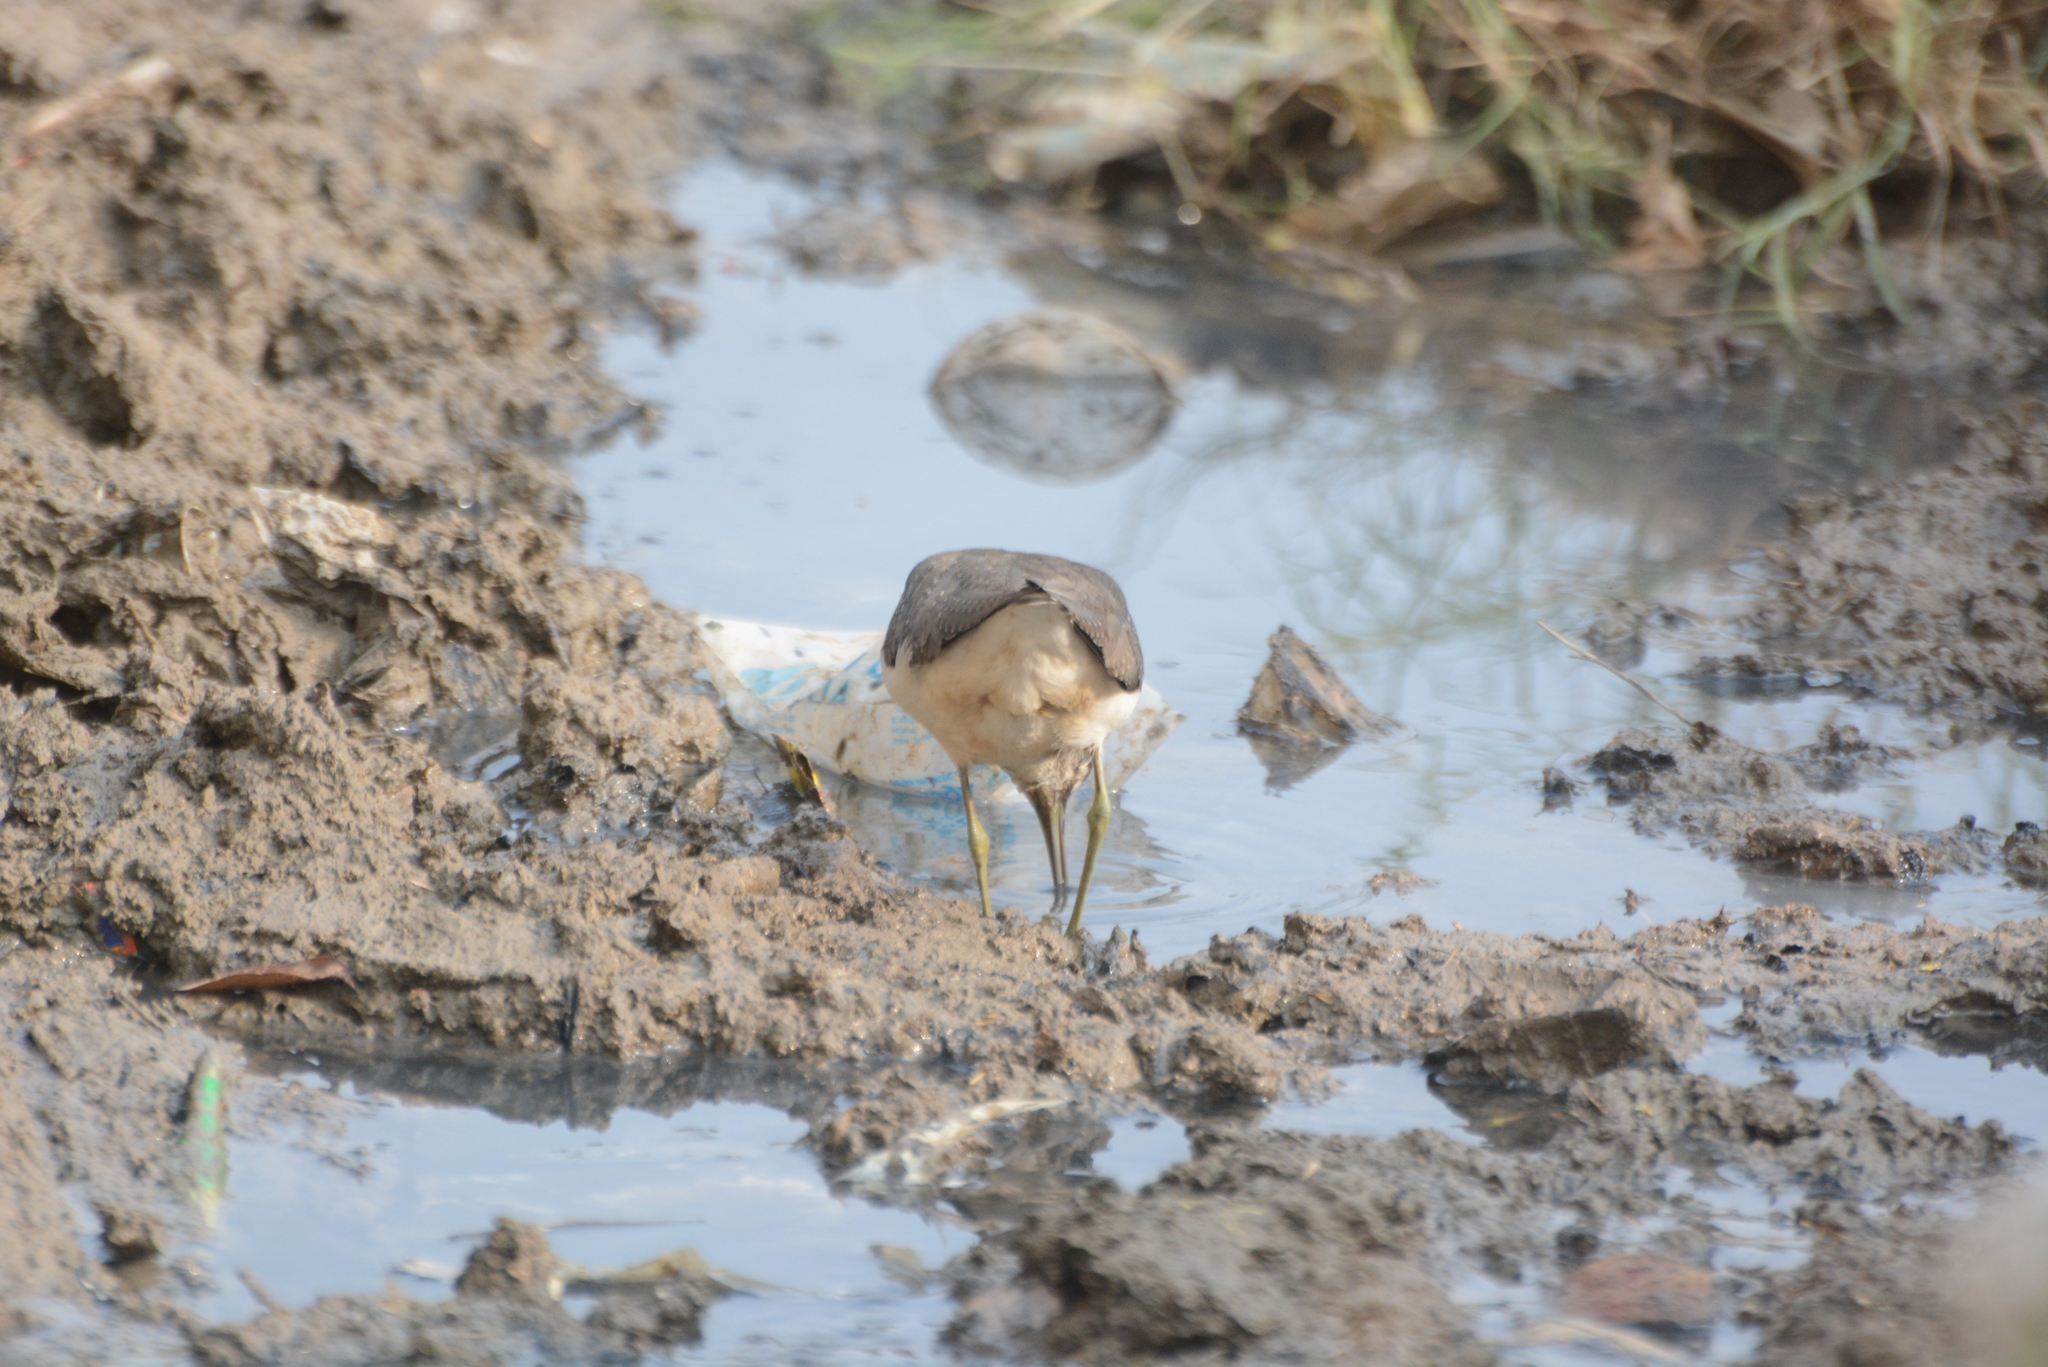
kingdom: Animalia
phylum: Chordata
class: Aves
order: Charadriiformes
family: Scolopacidae
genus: Tringa
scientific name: Tringa ochropus
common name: Green sandpiper
